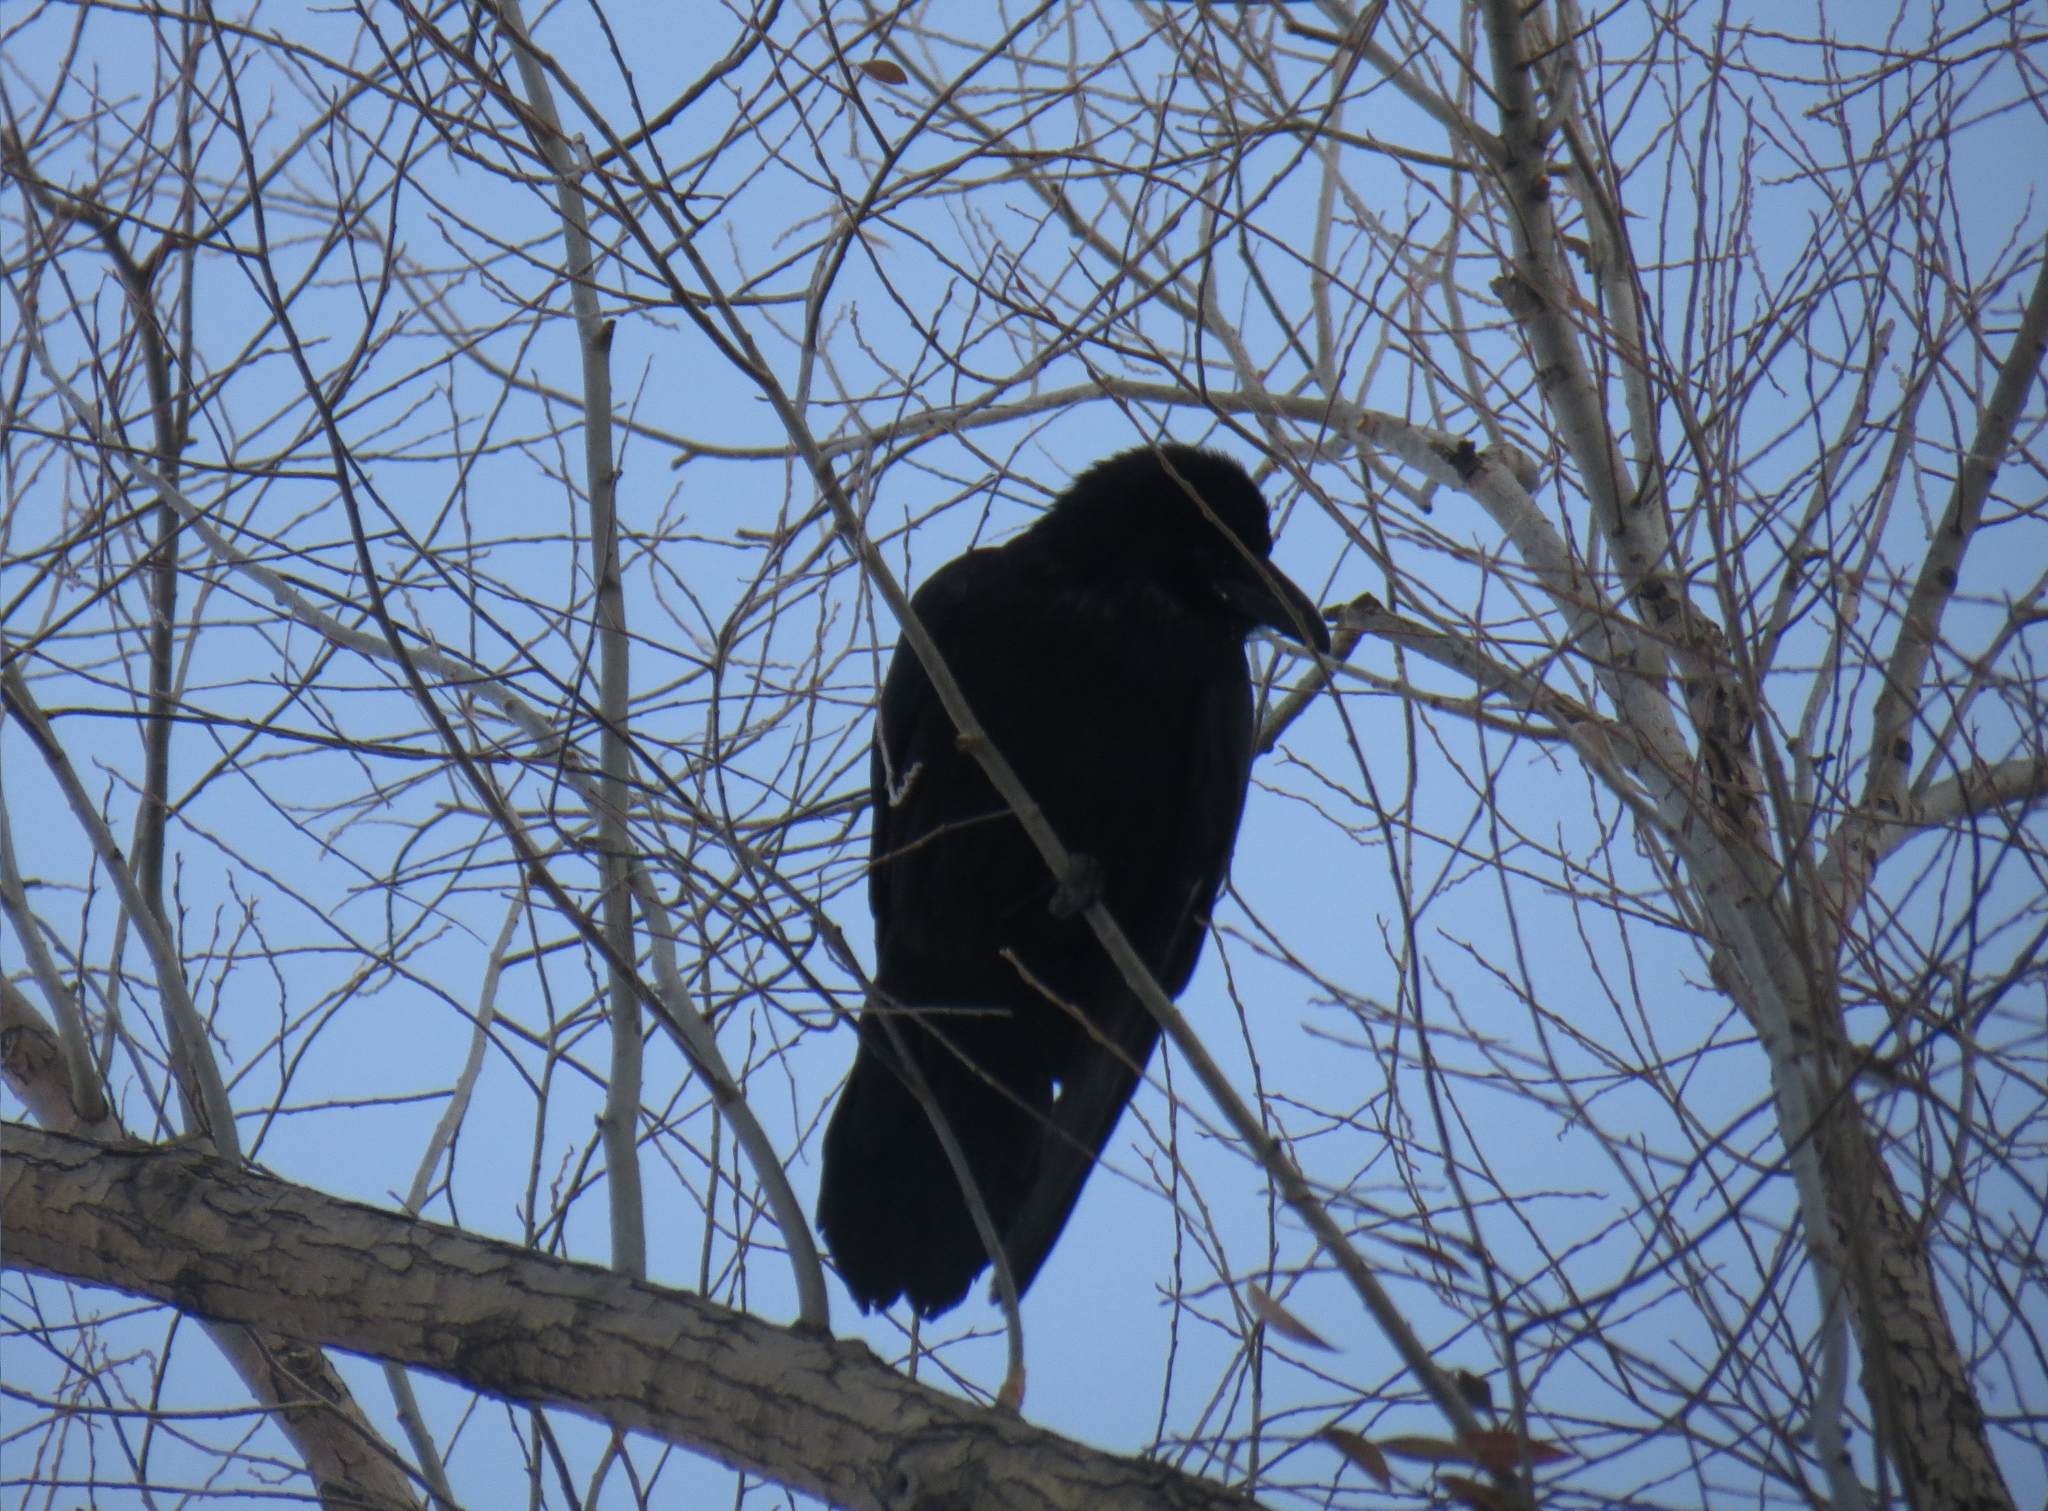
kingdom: Animalia
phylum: Chordata
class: Aves
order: Passeriformes
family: Corvidae
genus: Corvus
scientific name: Corvus corax
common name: Common raven
